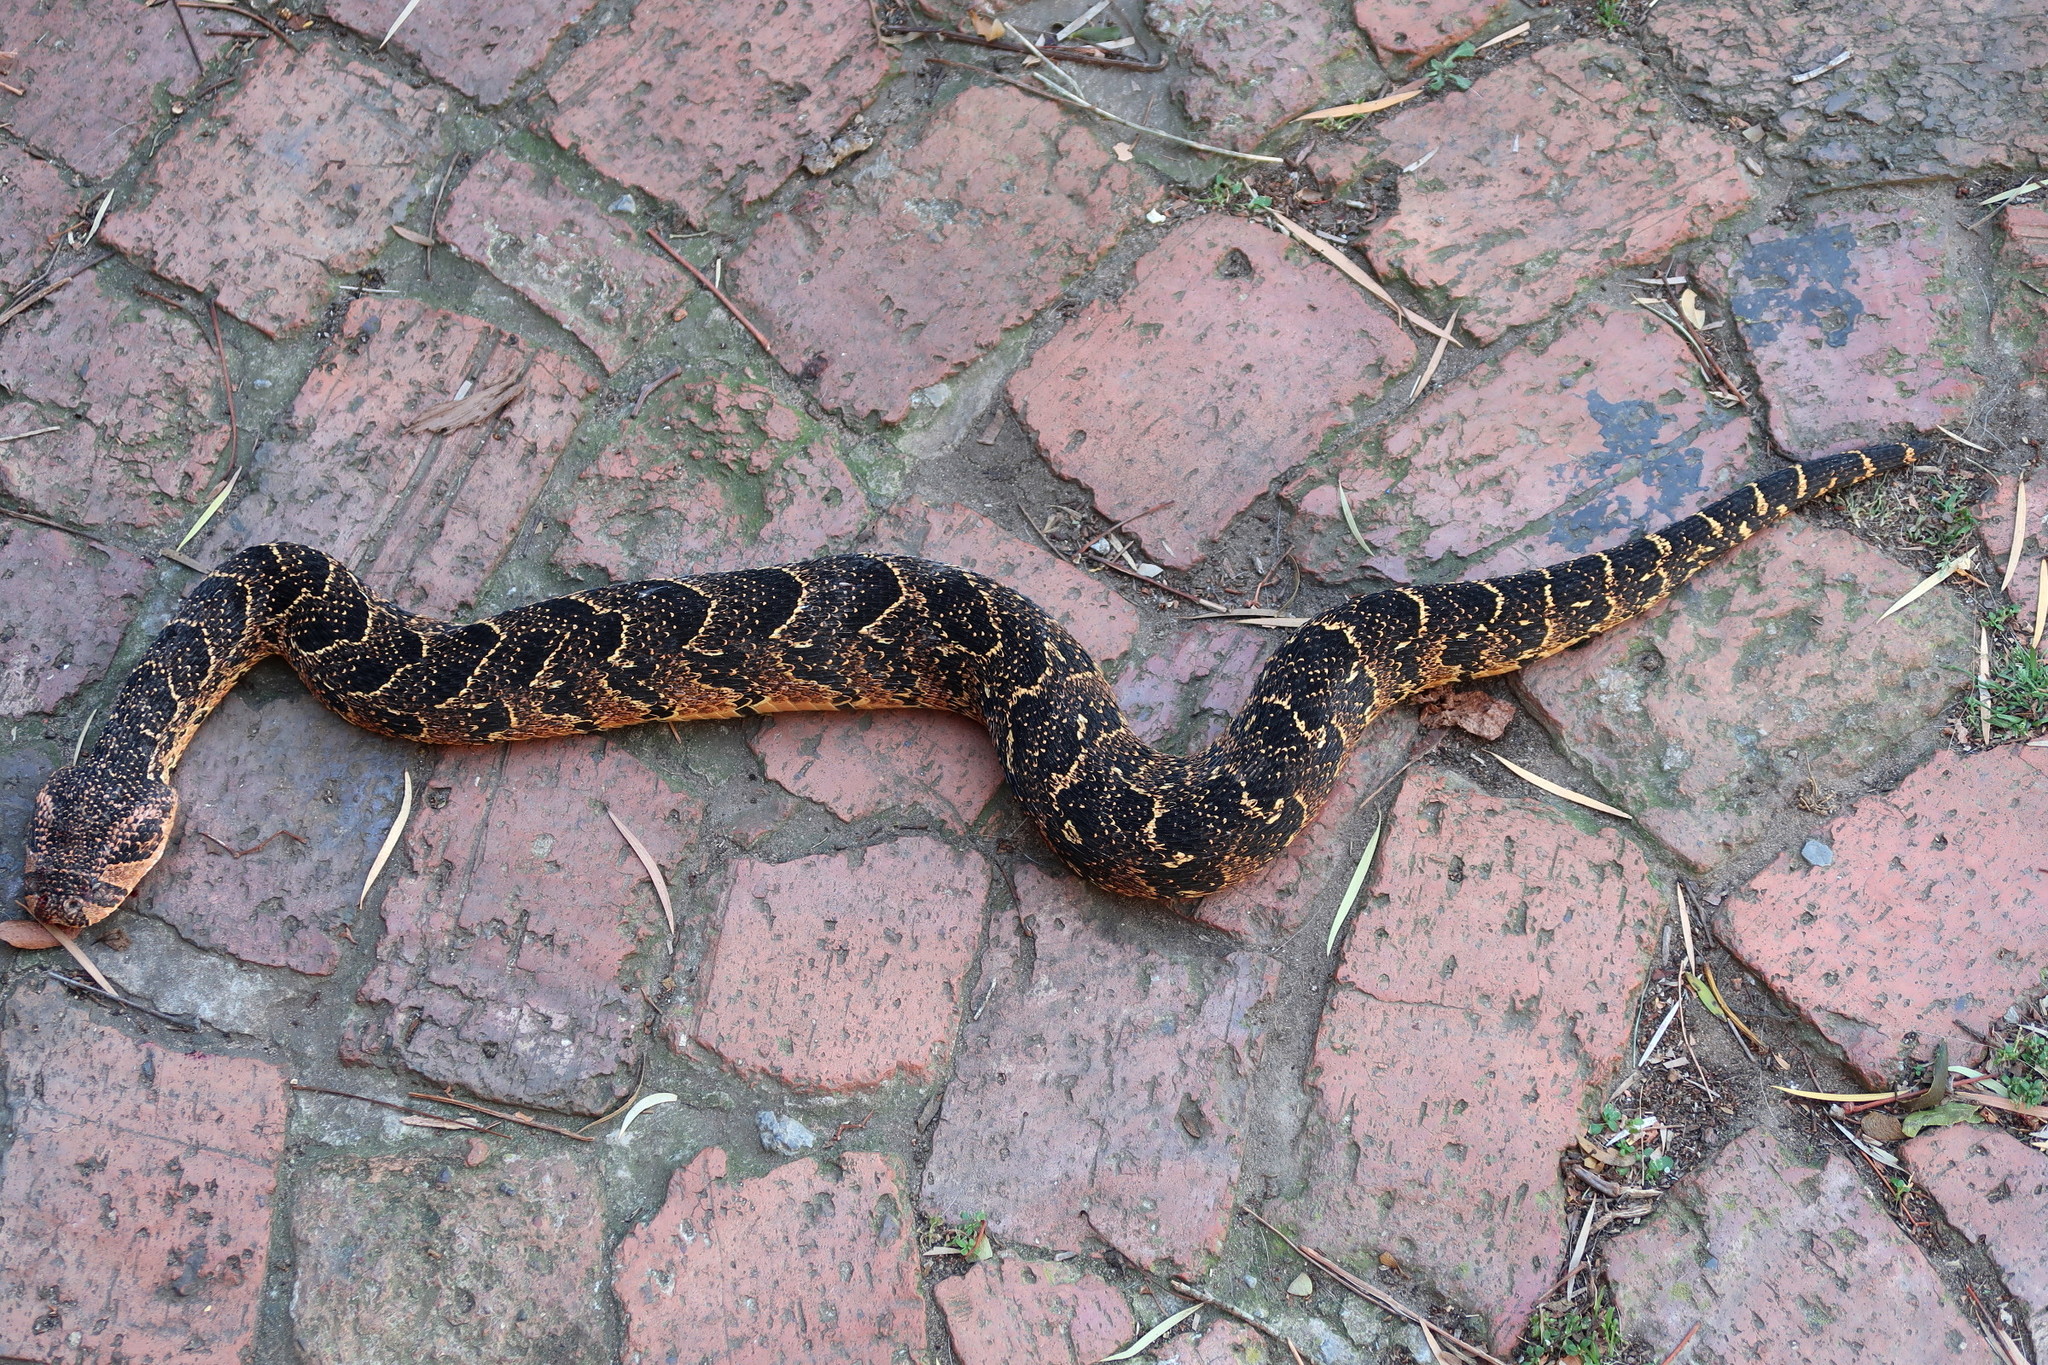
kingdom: Animalia
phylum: Chordata
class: Squamata
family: Viperidae
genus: Bitis
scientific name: Bitis arietans
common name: Puff adder
